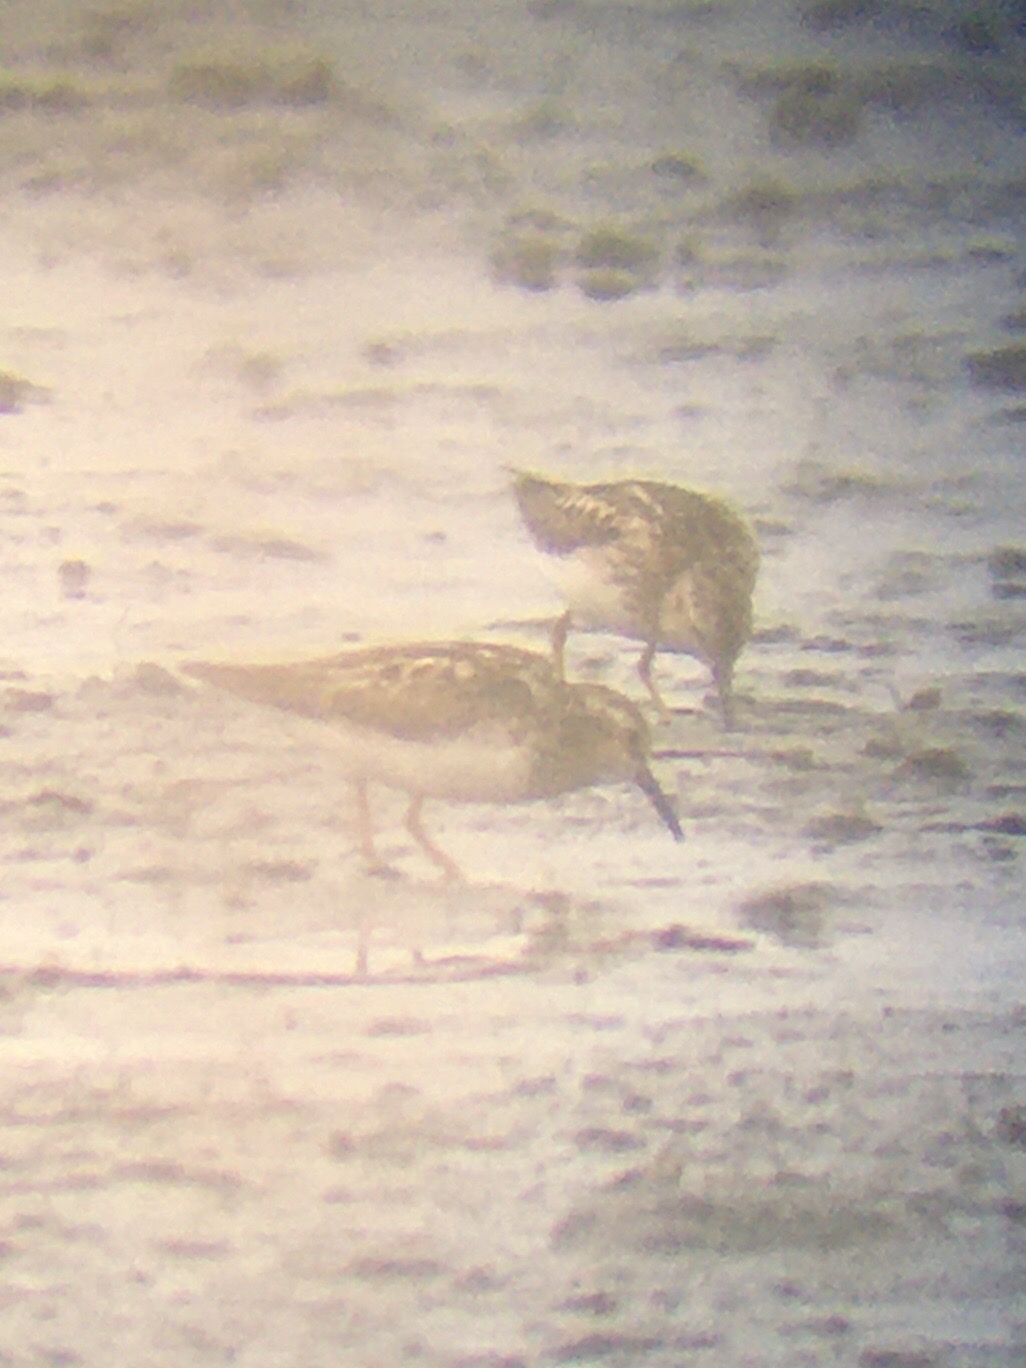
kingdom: Animalia
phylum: Chordata
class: Aves
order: Charadriiformes
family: Scolopacidae
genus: Calidris
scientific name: Calidris minutilla
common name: Least sandpiper
